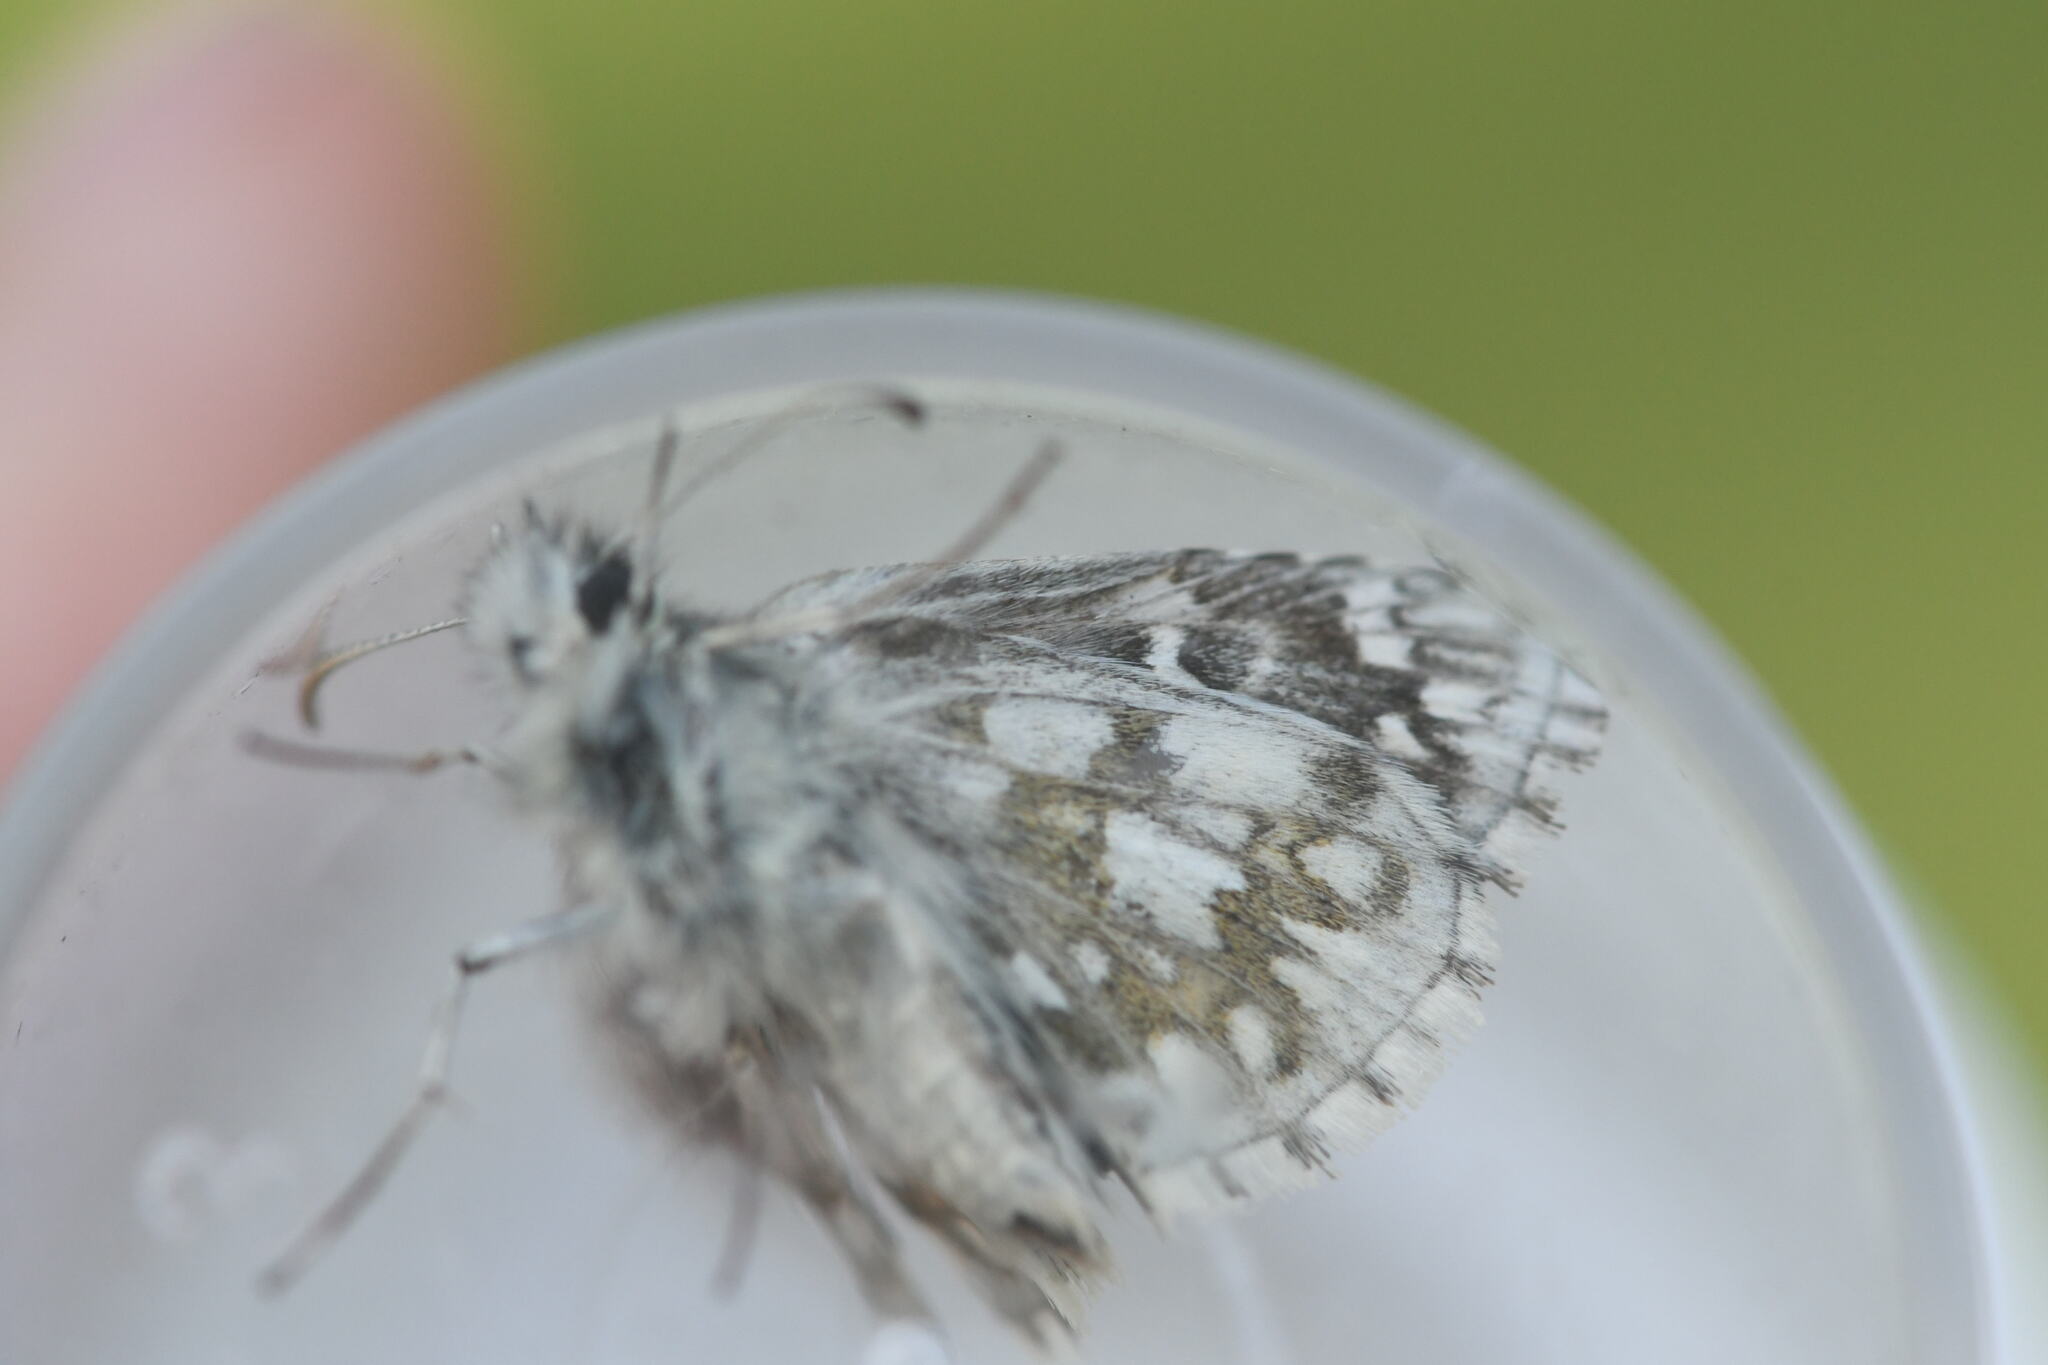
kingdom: Animalia
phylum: Arthropoda
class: Insecta
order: Lepidoptera
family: Hesperiidae
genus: Pyrgus
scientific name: Pyrgus fritillarius
